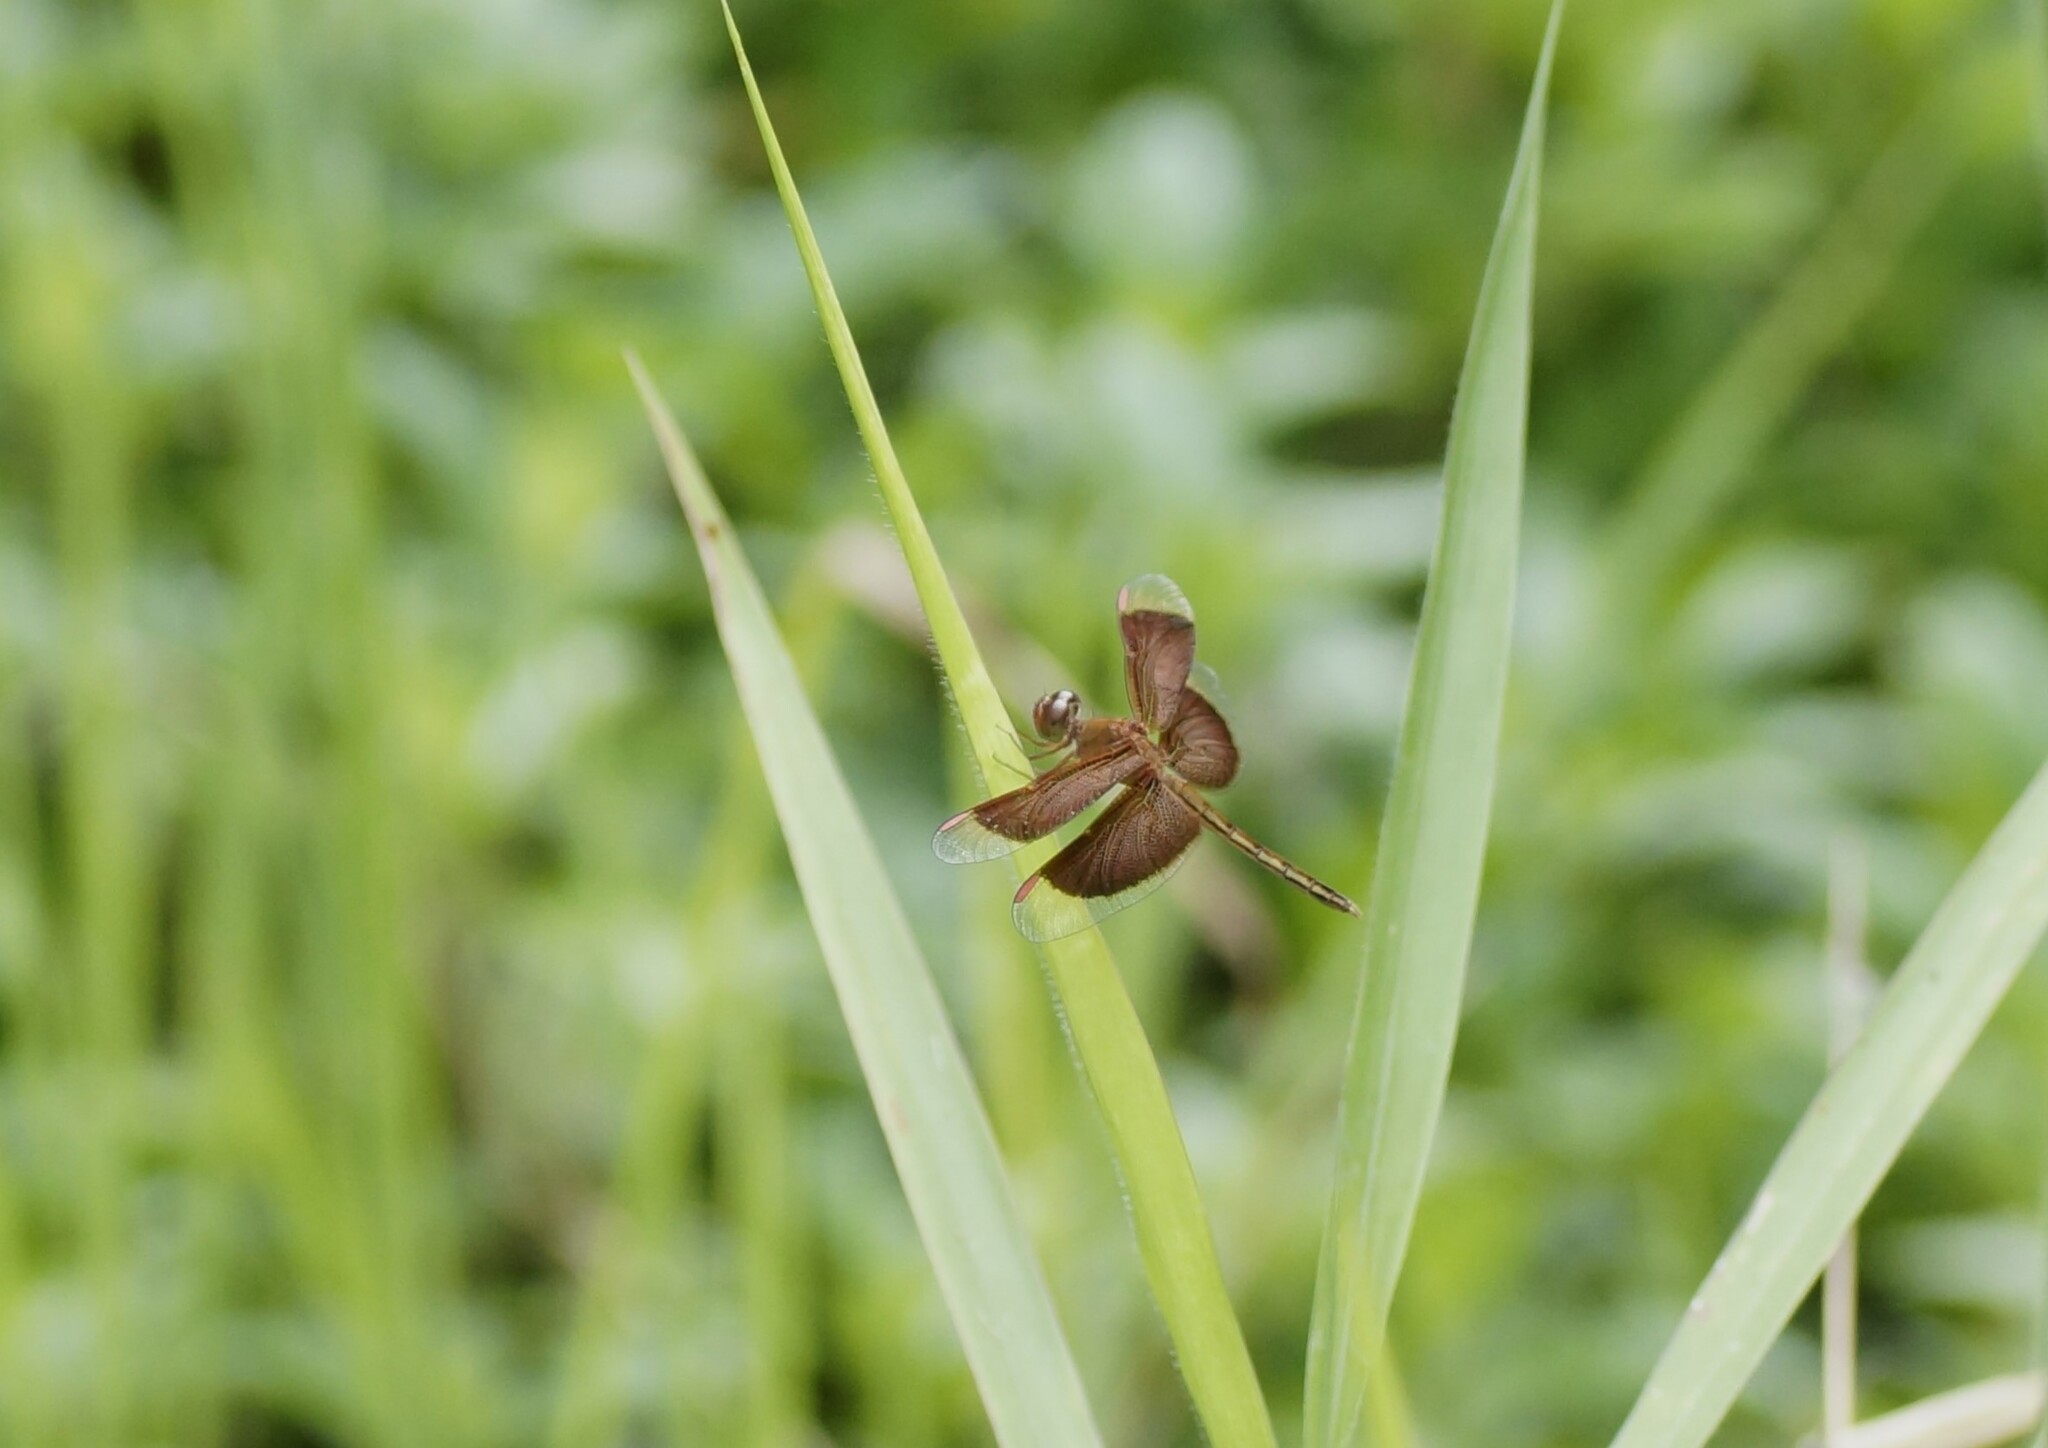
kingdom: Animalia
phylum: Arthropoda
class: Insecta
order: Odonata
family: Libellulidae
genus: Neurothemis
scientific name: Neurothemis stigmatizans
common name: Painted grasshawk
